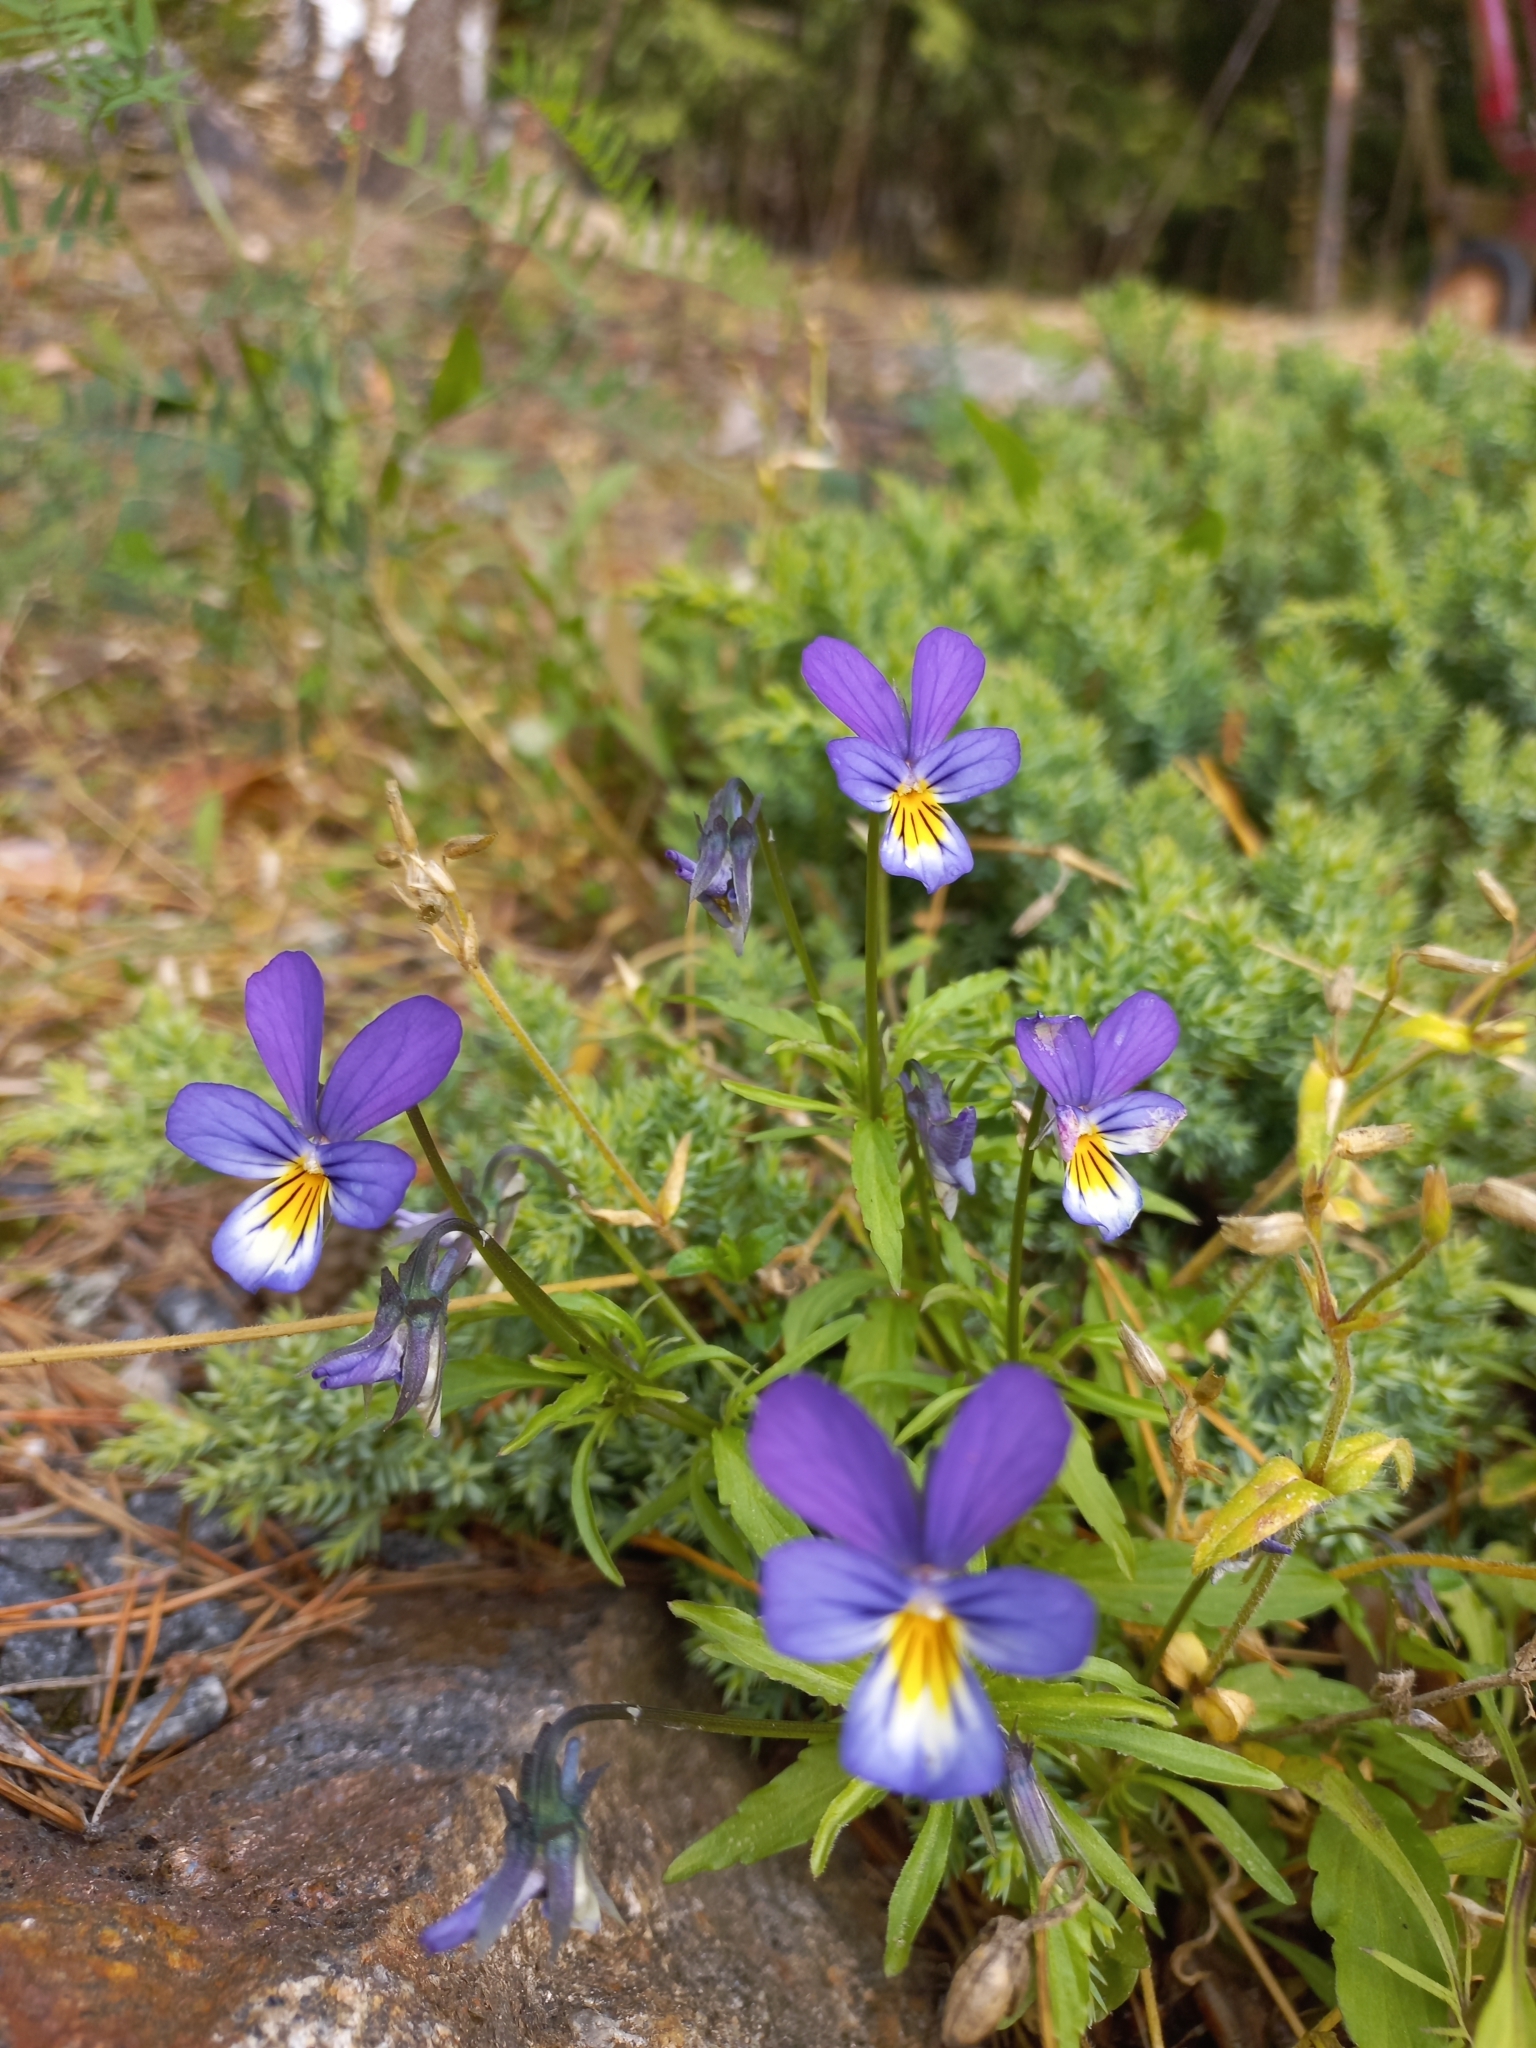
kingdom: Plantae
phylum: Tracheophyta
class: Magnoliopsida
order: Malpighiales
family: Violaceae
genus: Viola
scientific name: Viola tricolor
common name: Pansy
